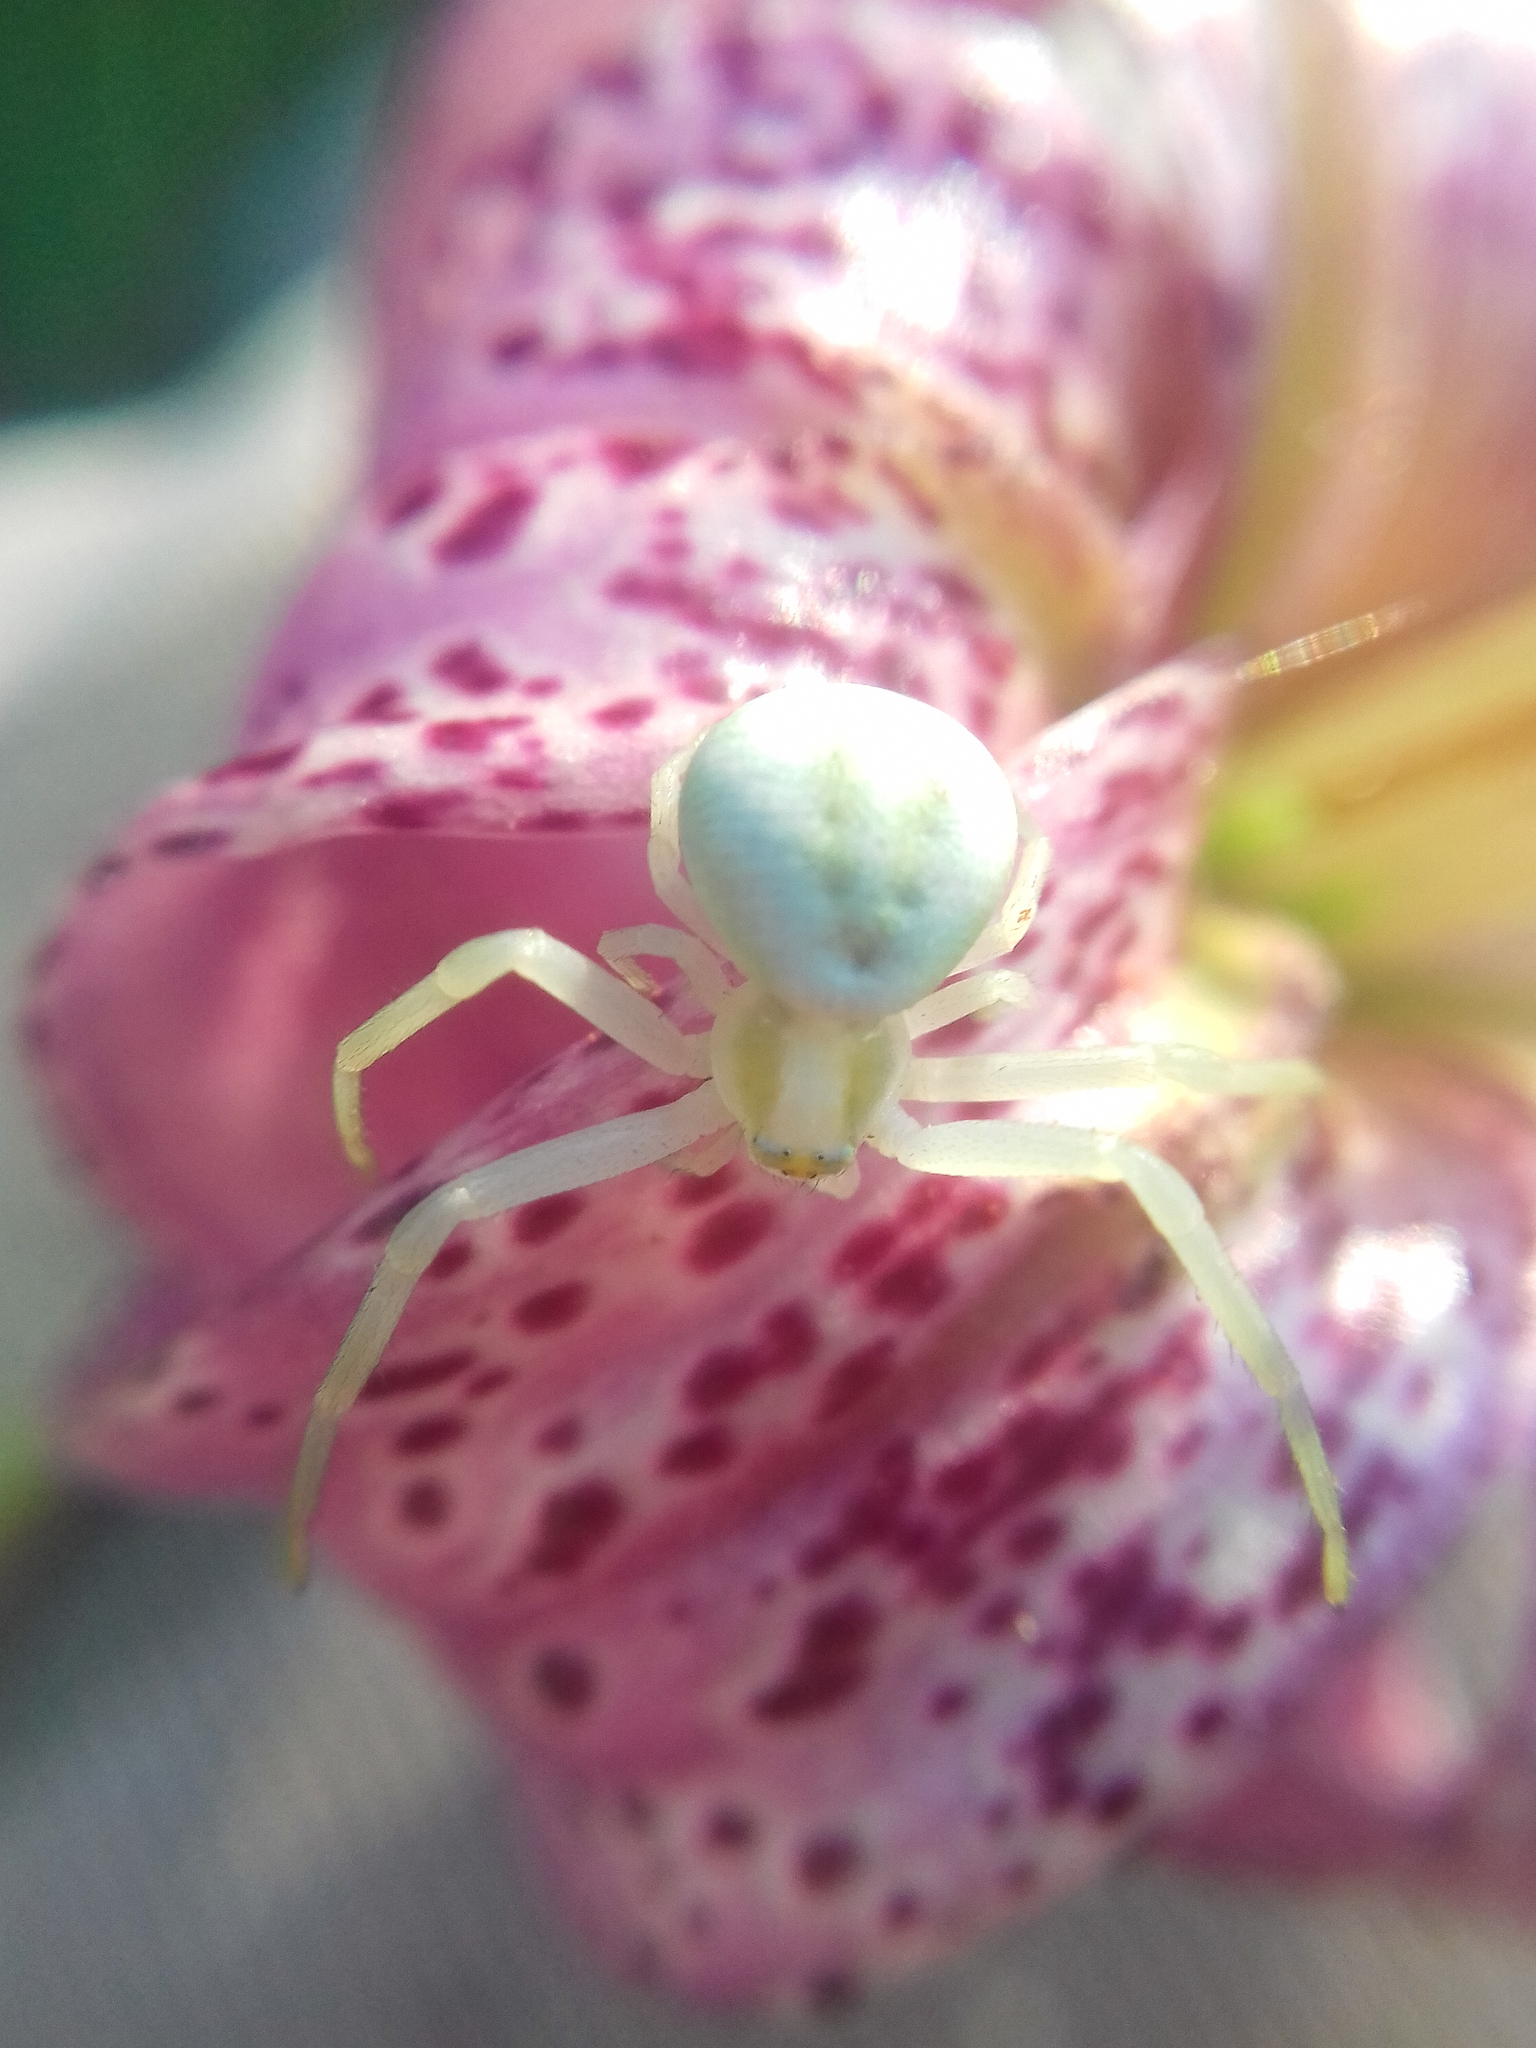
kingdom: Animalia
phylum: Arthropoda
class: Arachnida
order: Araneae
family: Thomisidae
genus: Misumena
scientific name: Misumena vatia
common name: Goldenrod crab spider
